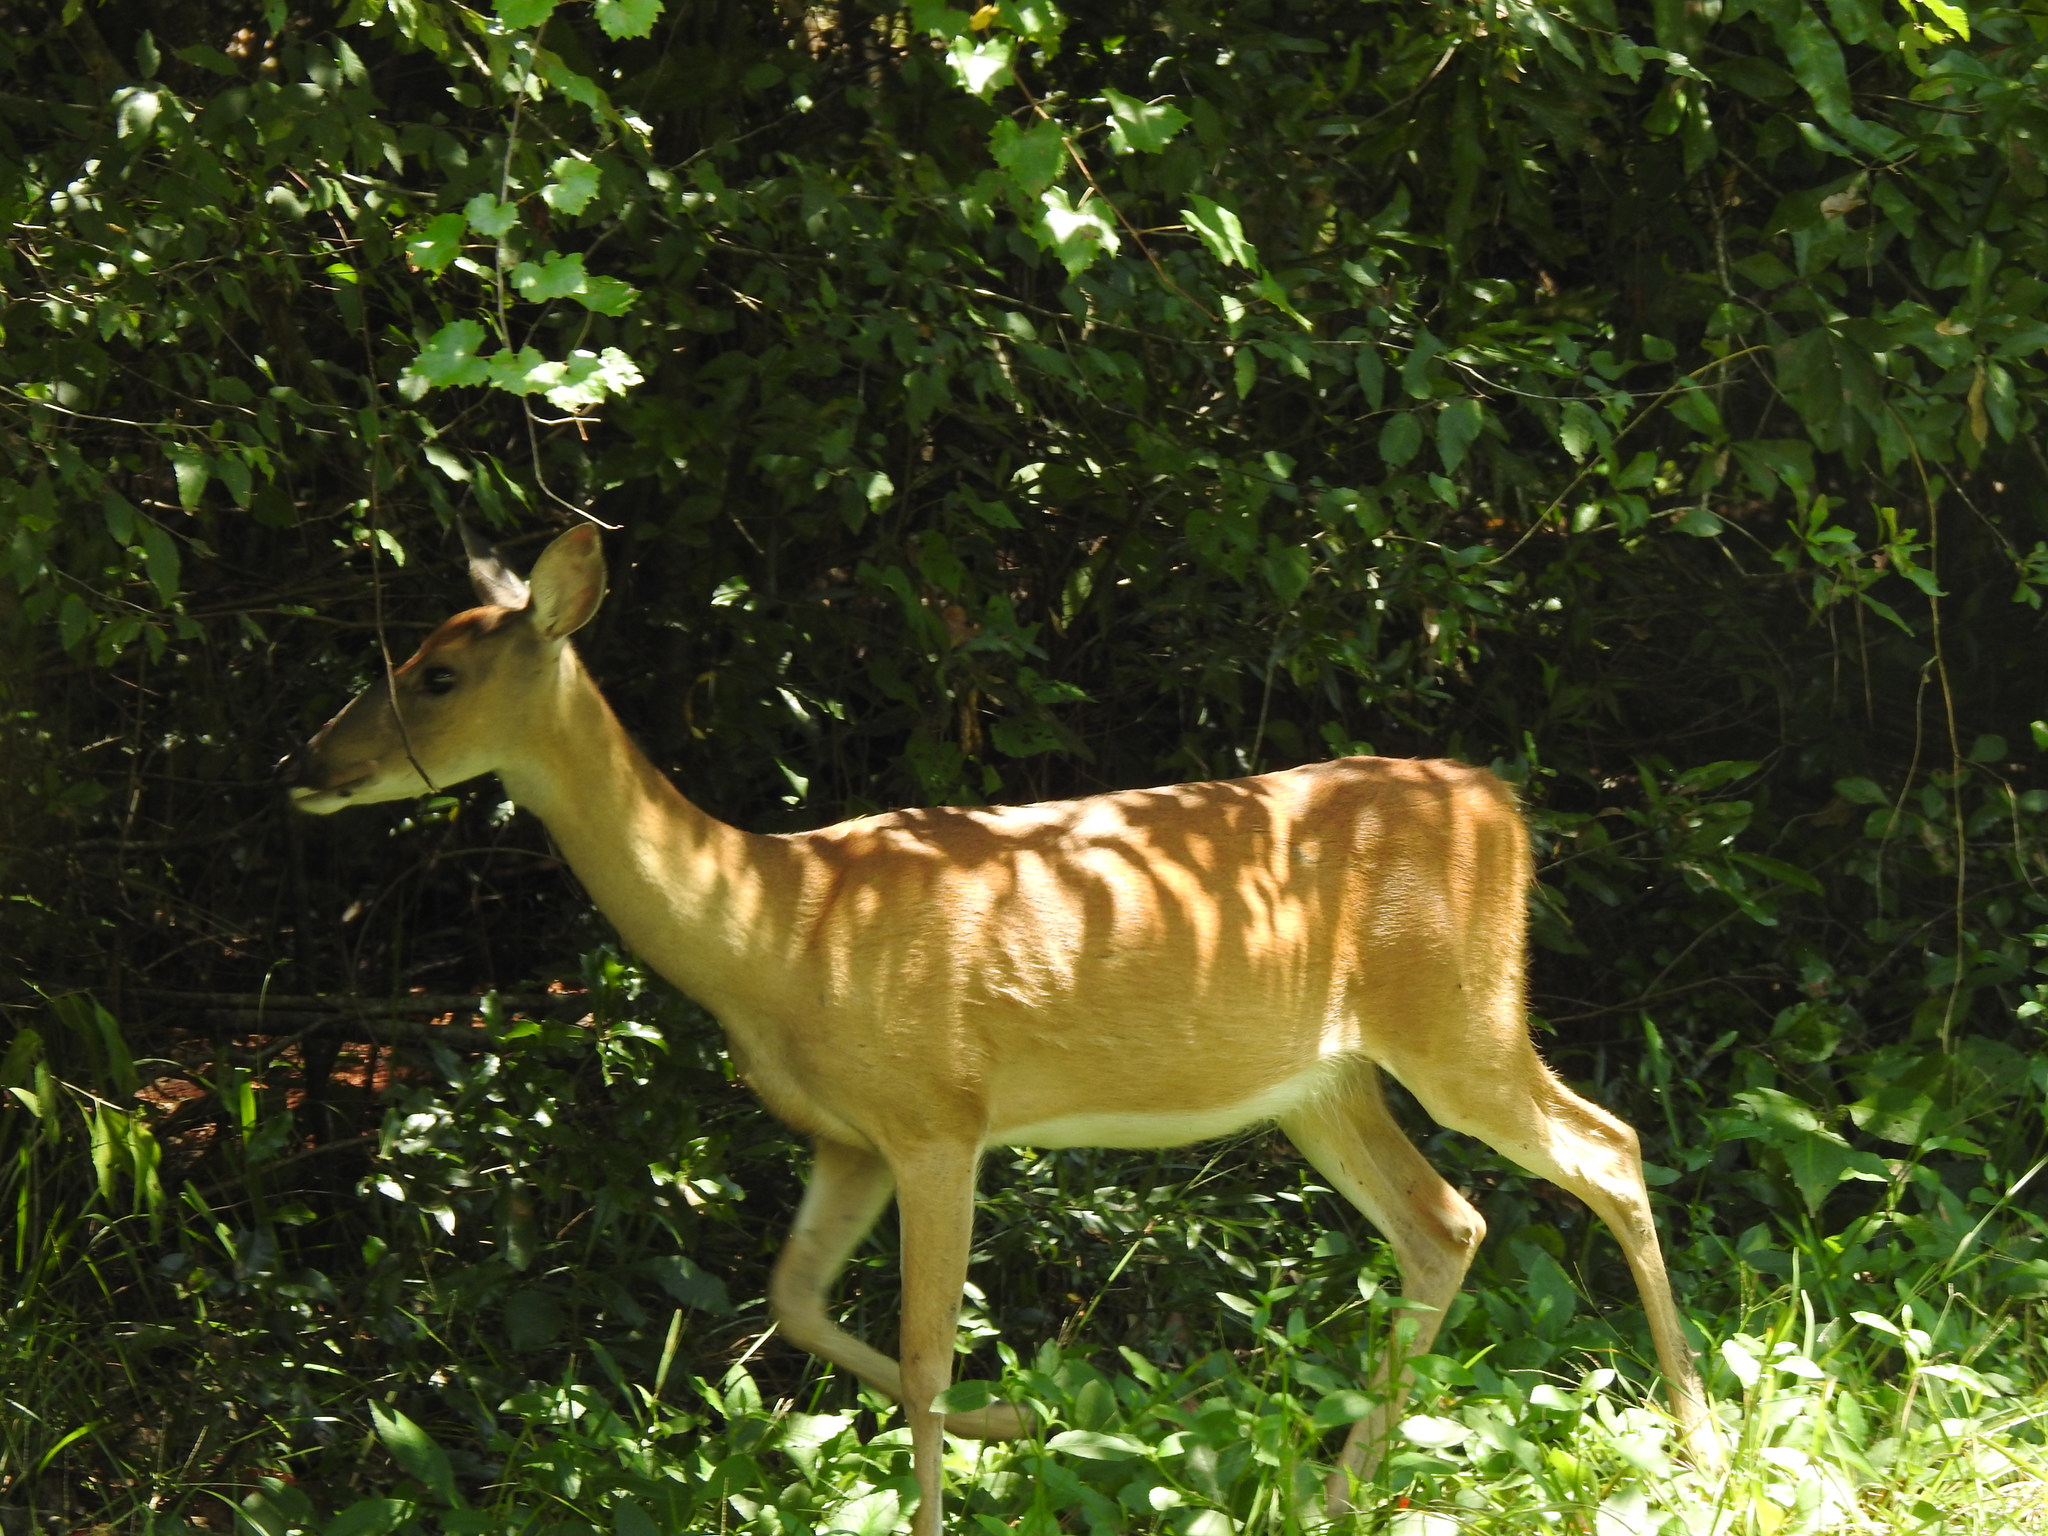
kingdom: Animalia
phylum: Chordata
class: Mammalia
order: Artiodactyla
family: Cervidae
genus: Odocoileus
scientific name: Odocoileus virginianus
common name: White-tailed deer
